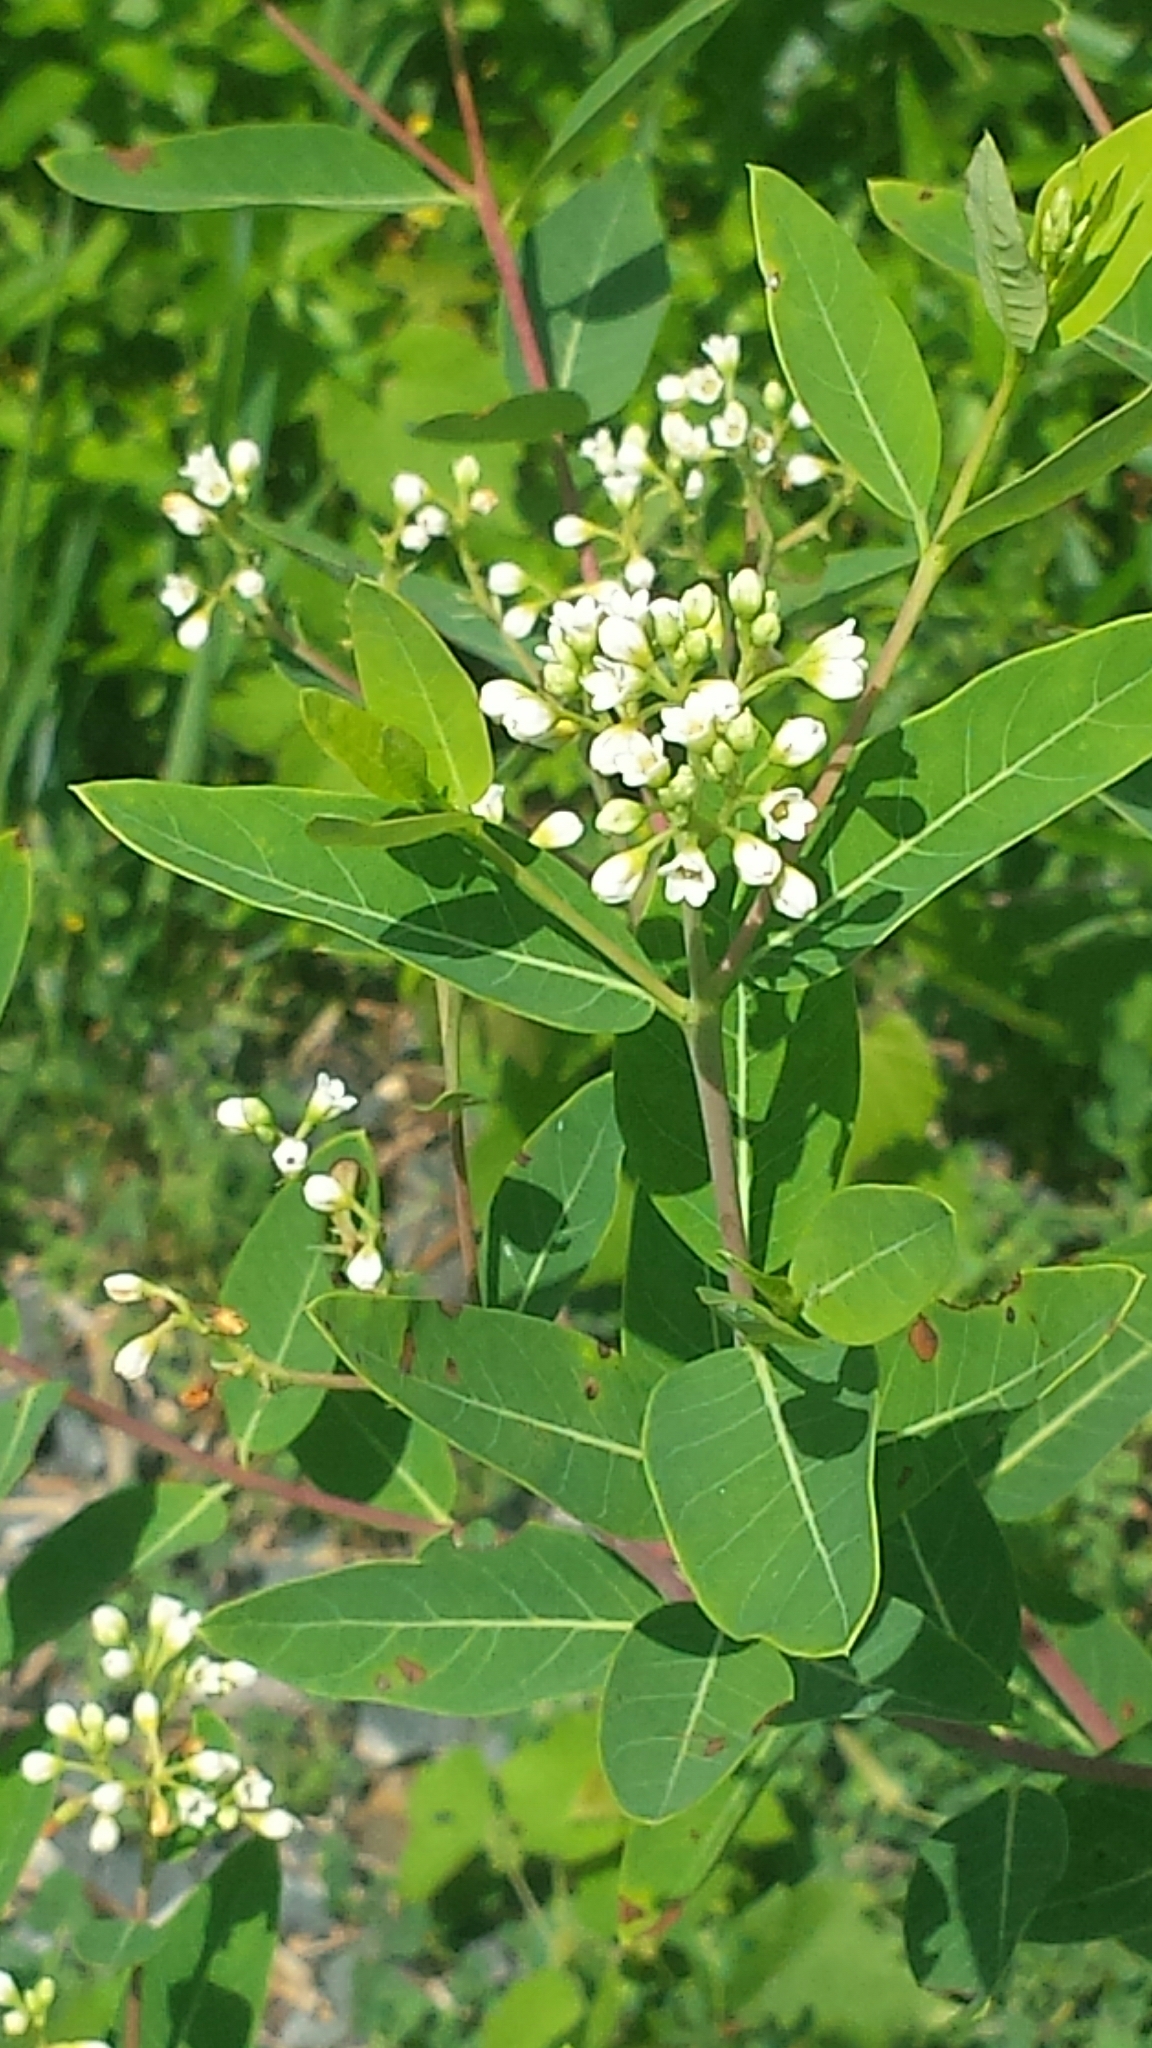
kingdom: Plantae
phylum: Tracheophyta
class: Magnoliopsida
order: Gentianales
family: Apocynaceae
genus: Apocynum
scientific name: Apocynum cannabinum
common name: Hemp dogbane
